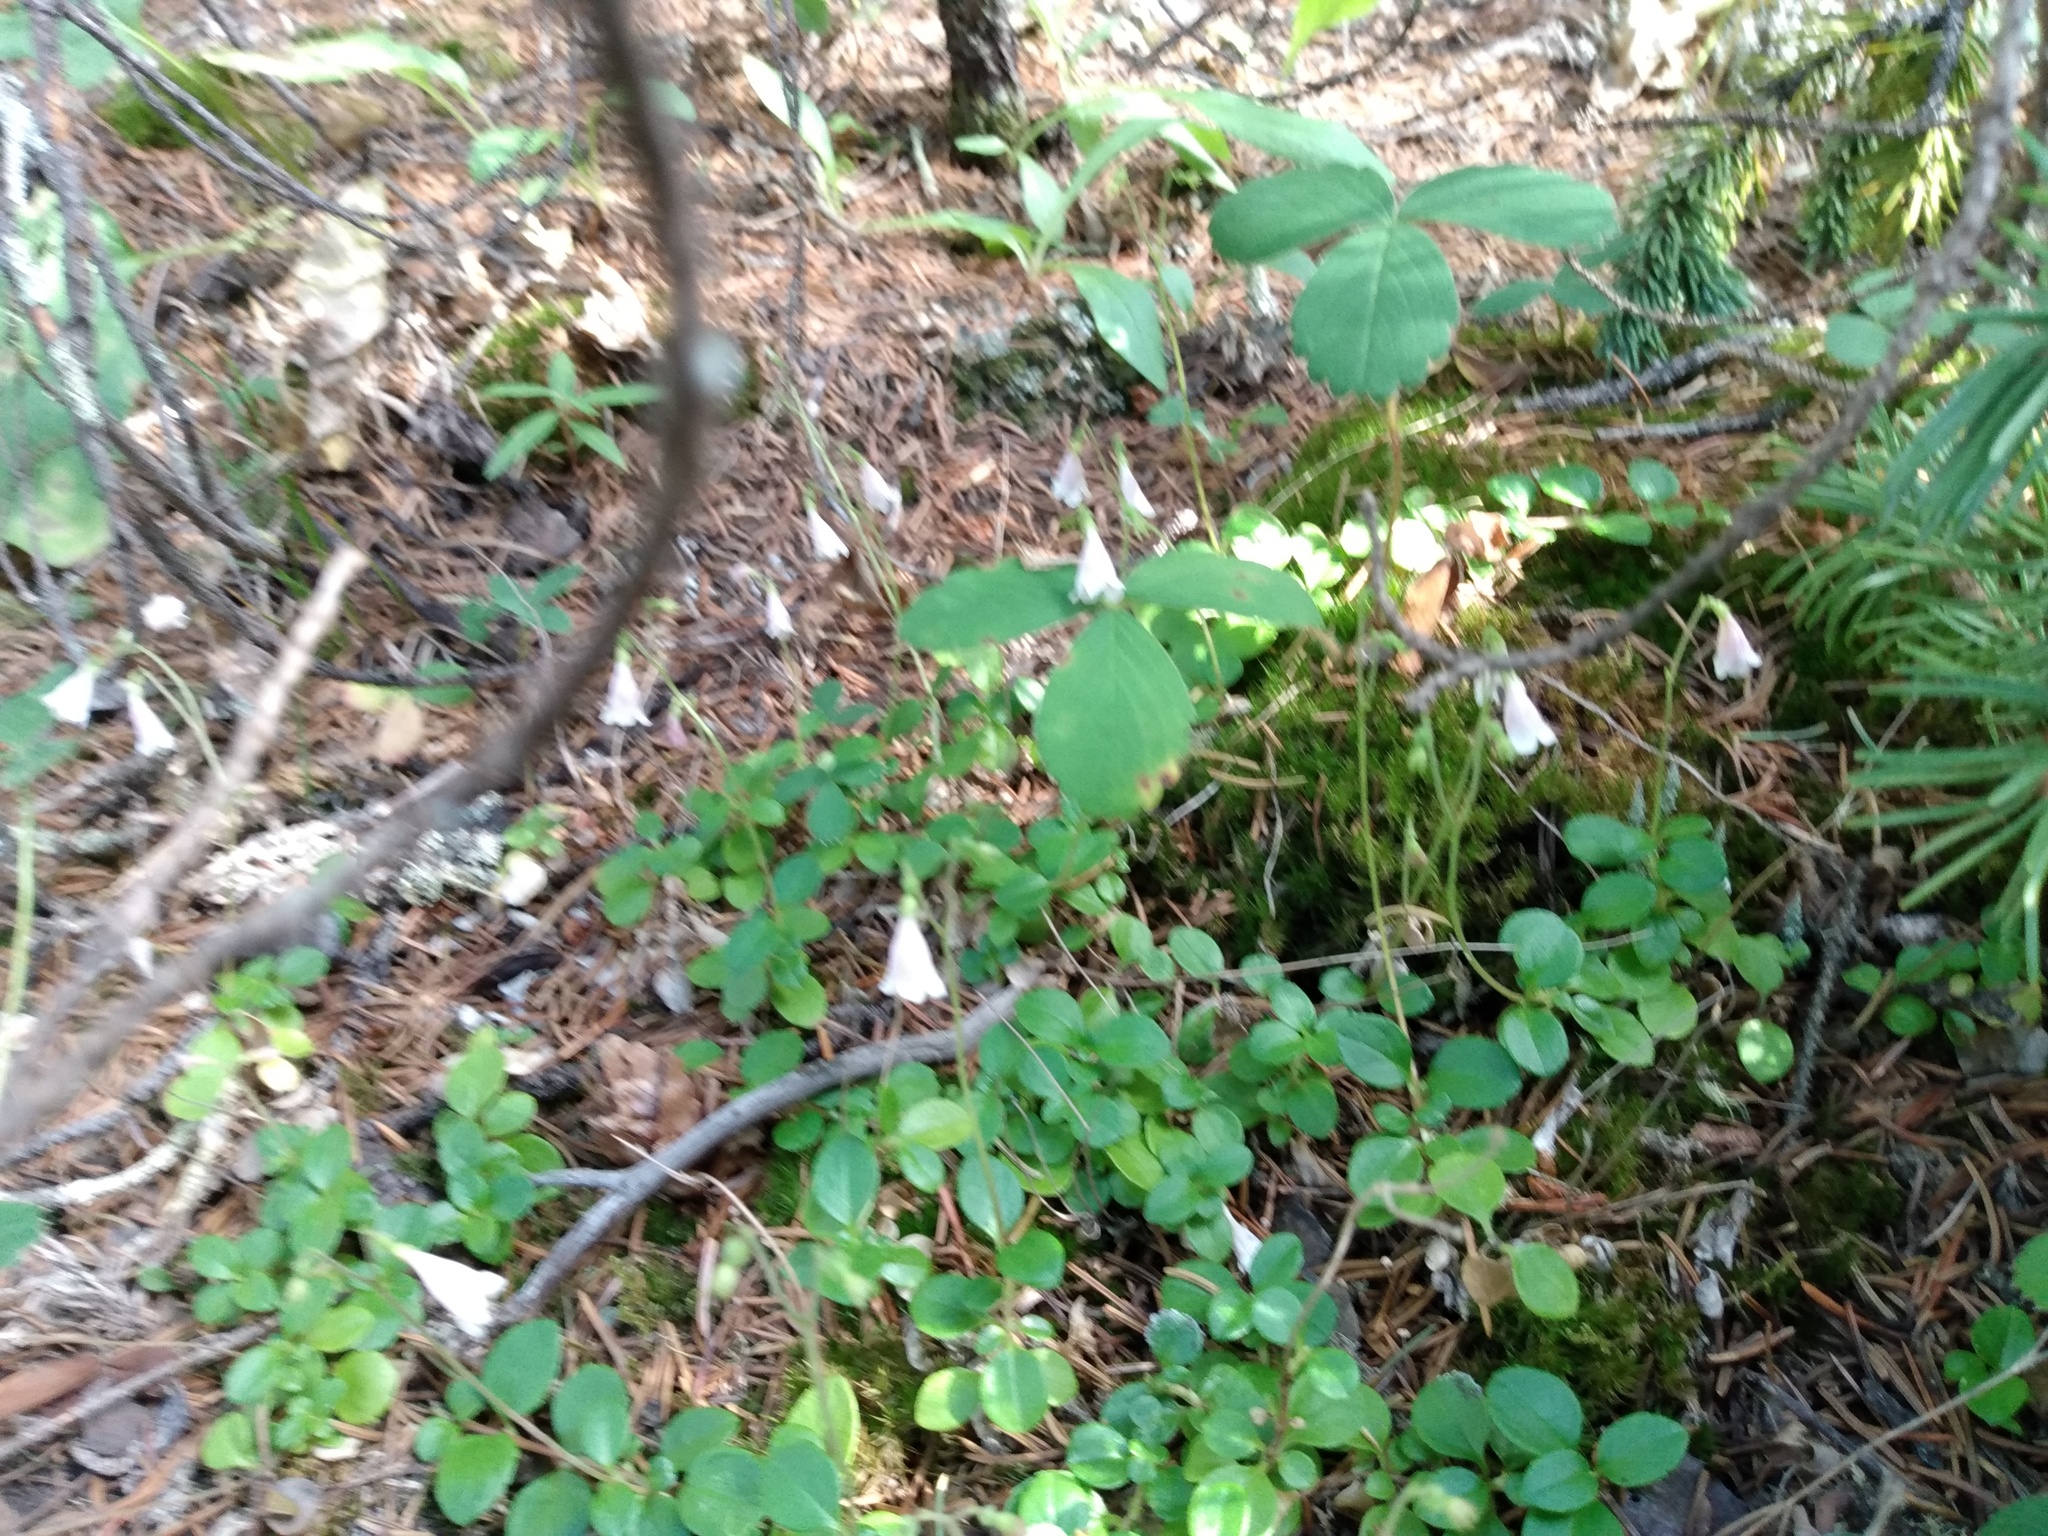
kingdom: Plantae
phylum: Tracheophyta
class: Magnoliopsida
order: Dipsacales
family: Caprifoliaceae
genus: Linnaea
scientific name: Linnaea borealis
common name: Twinflower
